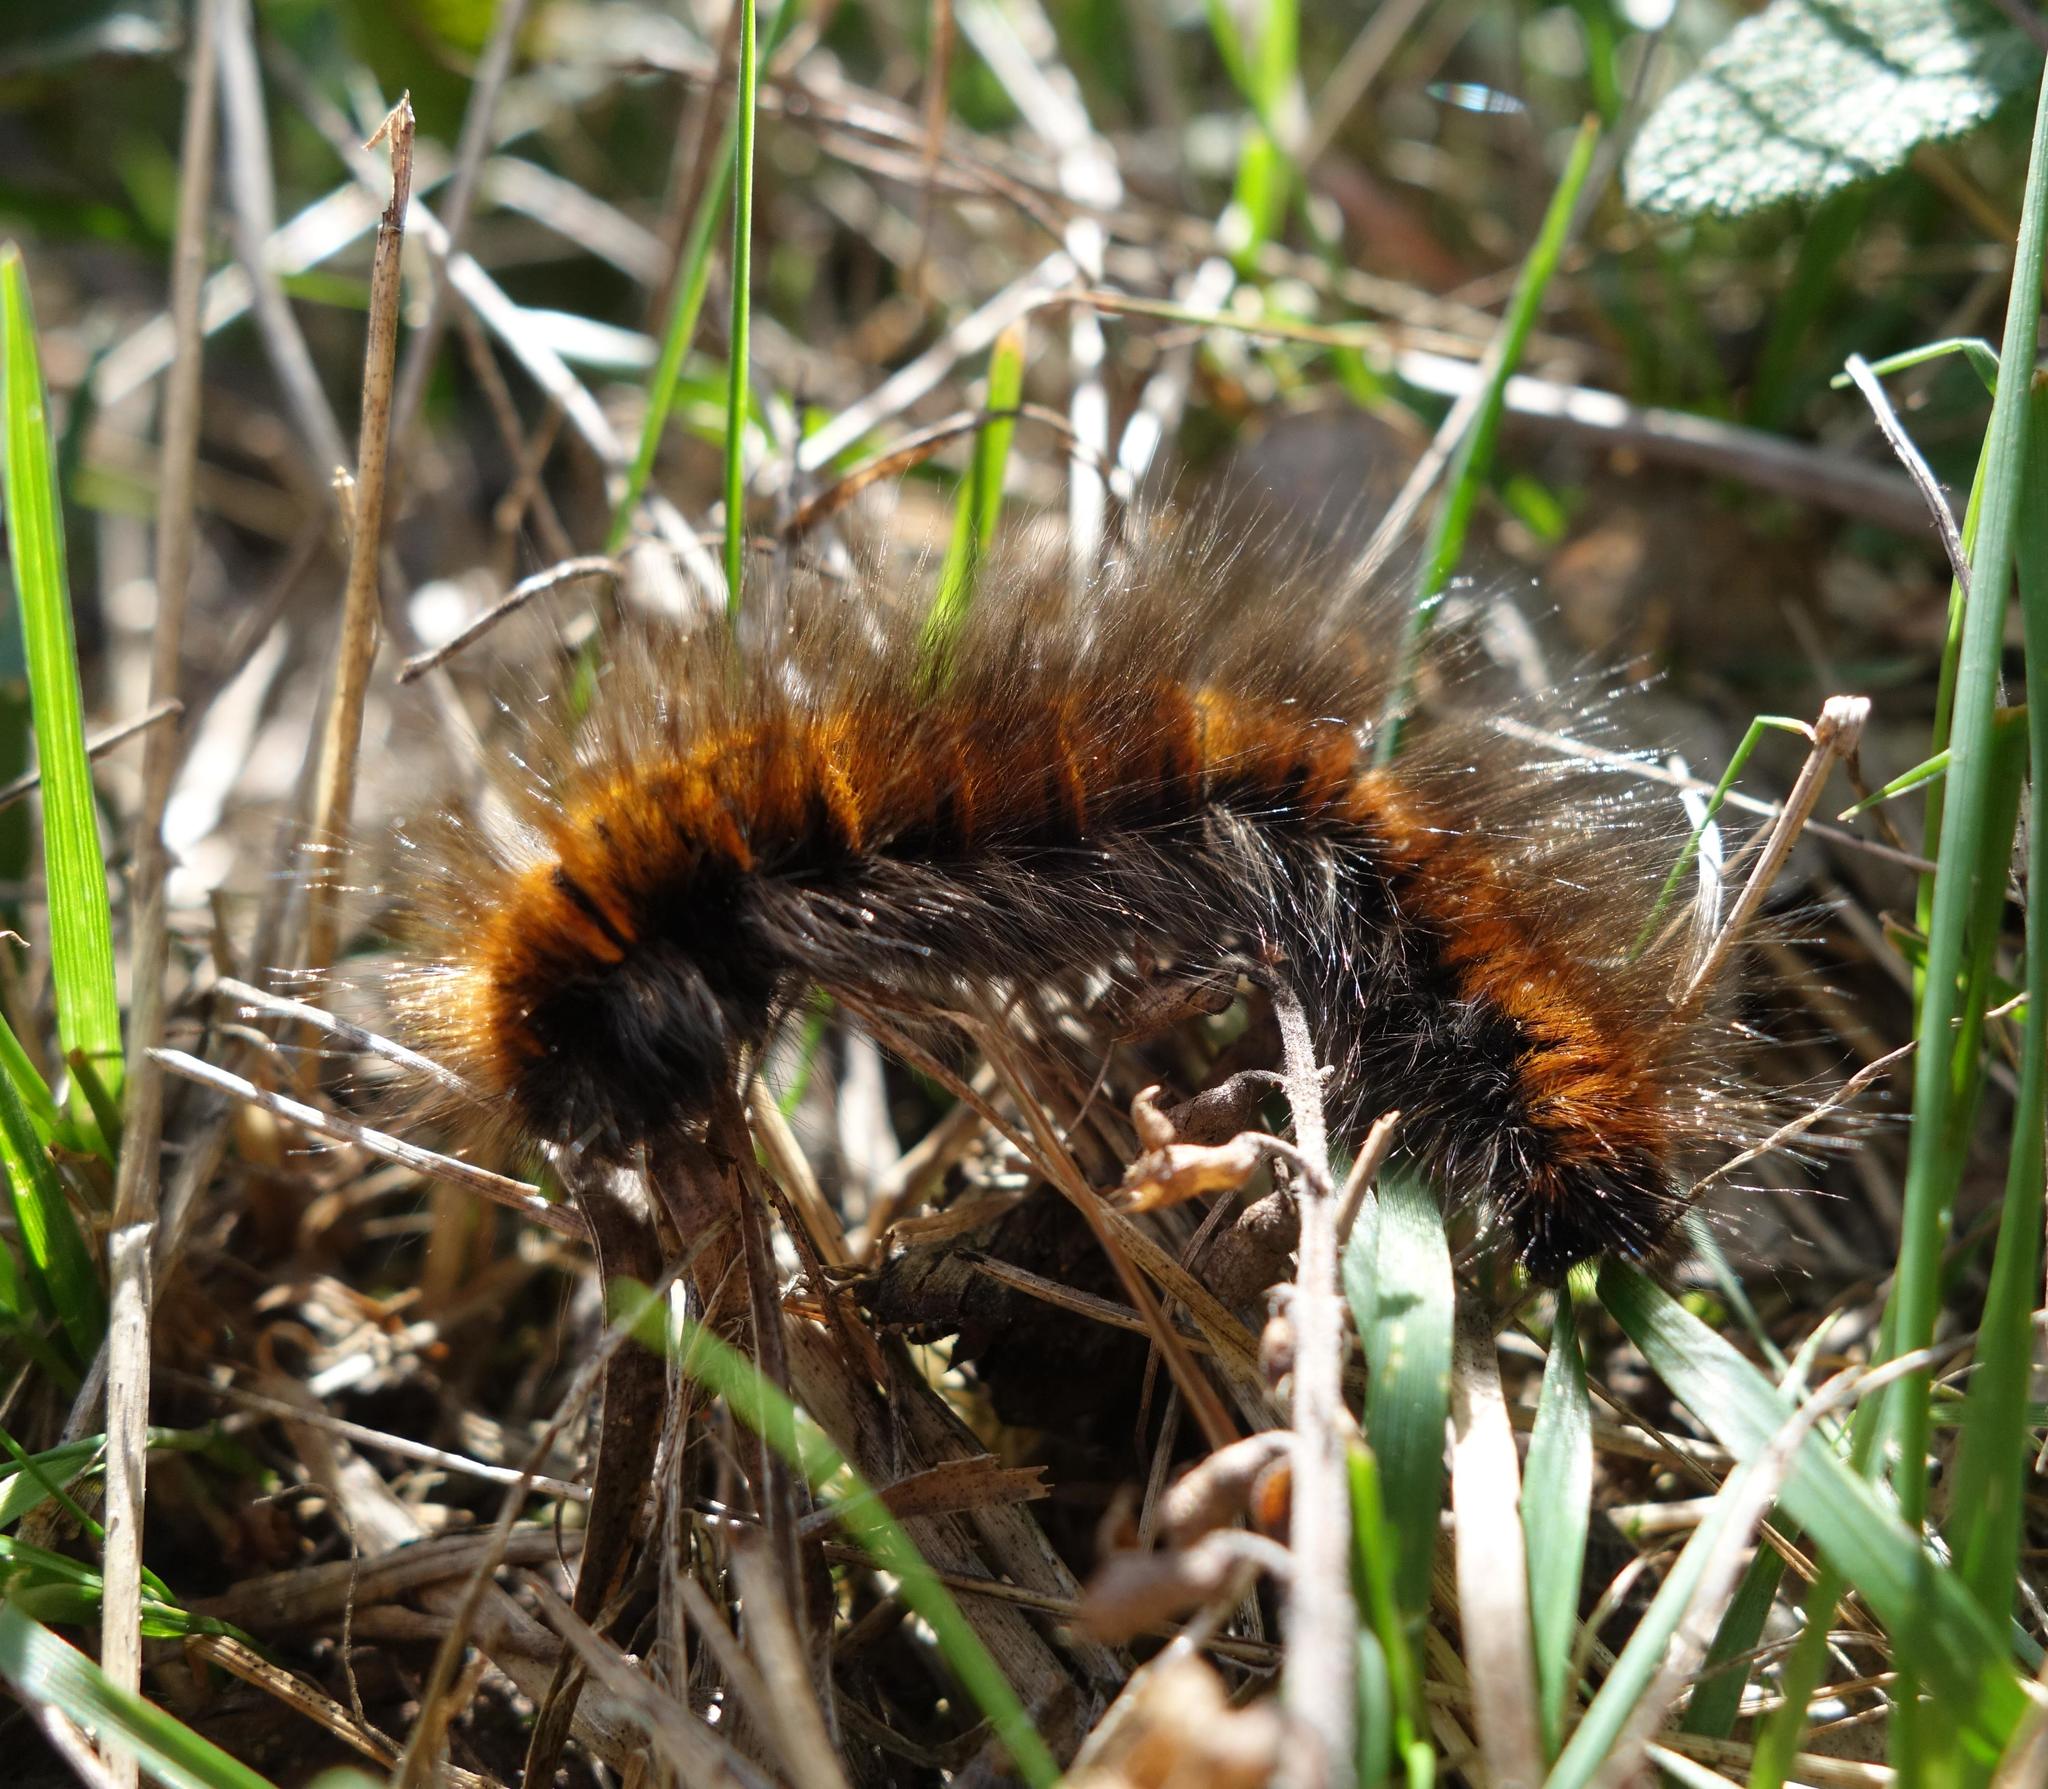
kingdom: Animalia
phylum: Arthropoda
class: Insecta
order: Lepidoptera
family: Lasiocampidae
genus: Macrothylacia
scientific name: Macrothylacia rubi
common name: Fox moth
